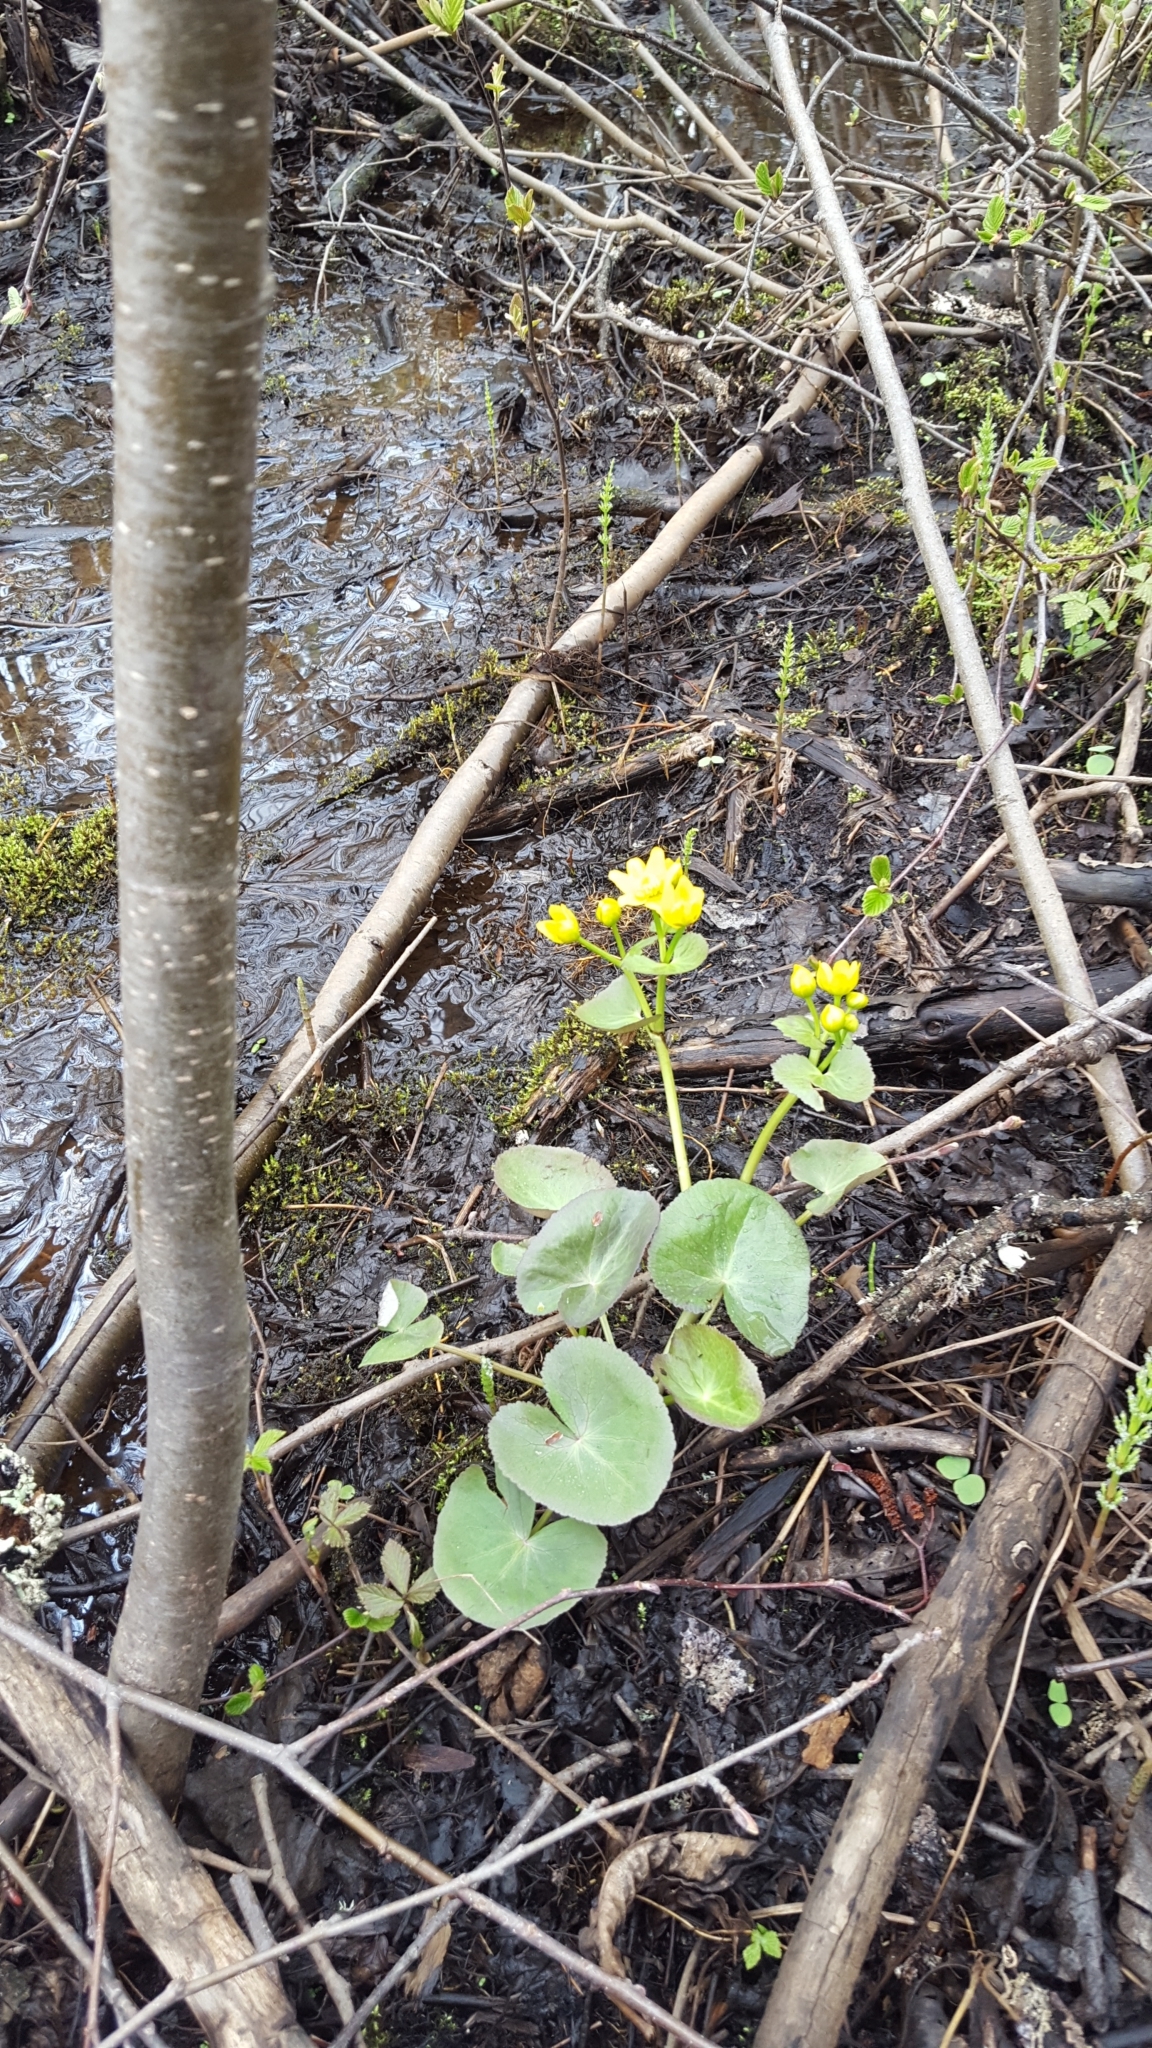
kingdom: Plantae
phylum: Tracheophyta
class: Magnoliopsida
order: Ranunculales
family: Ranunculaceae
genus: Caltha
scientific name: Caltha palustris
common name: Marsh marigold
